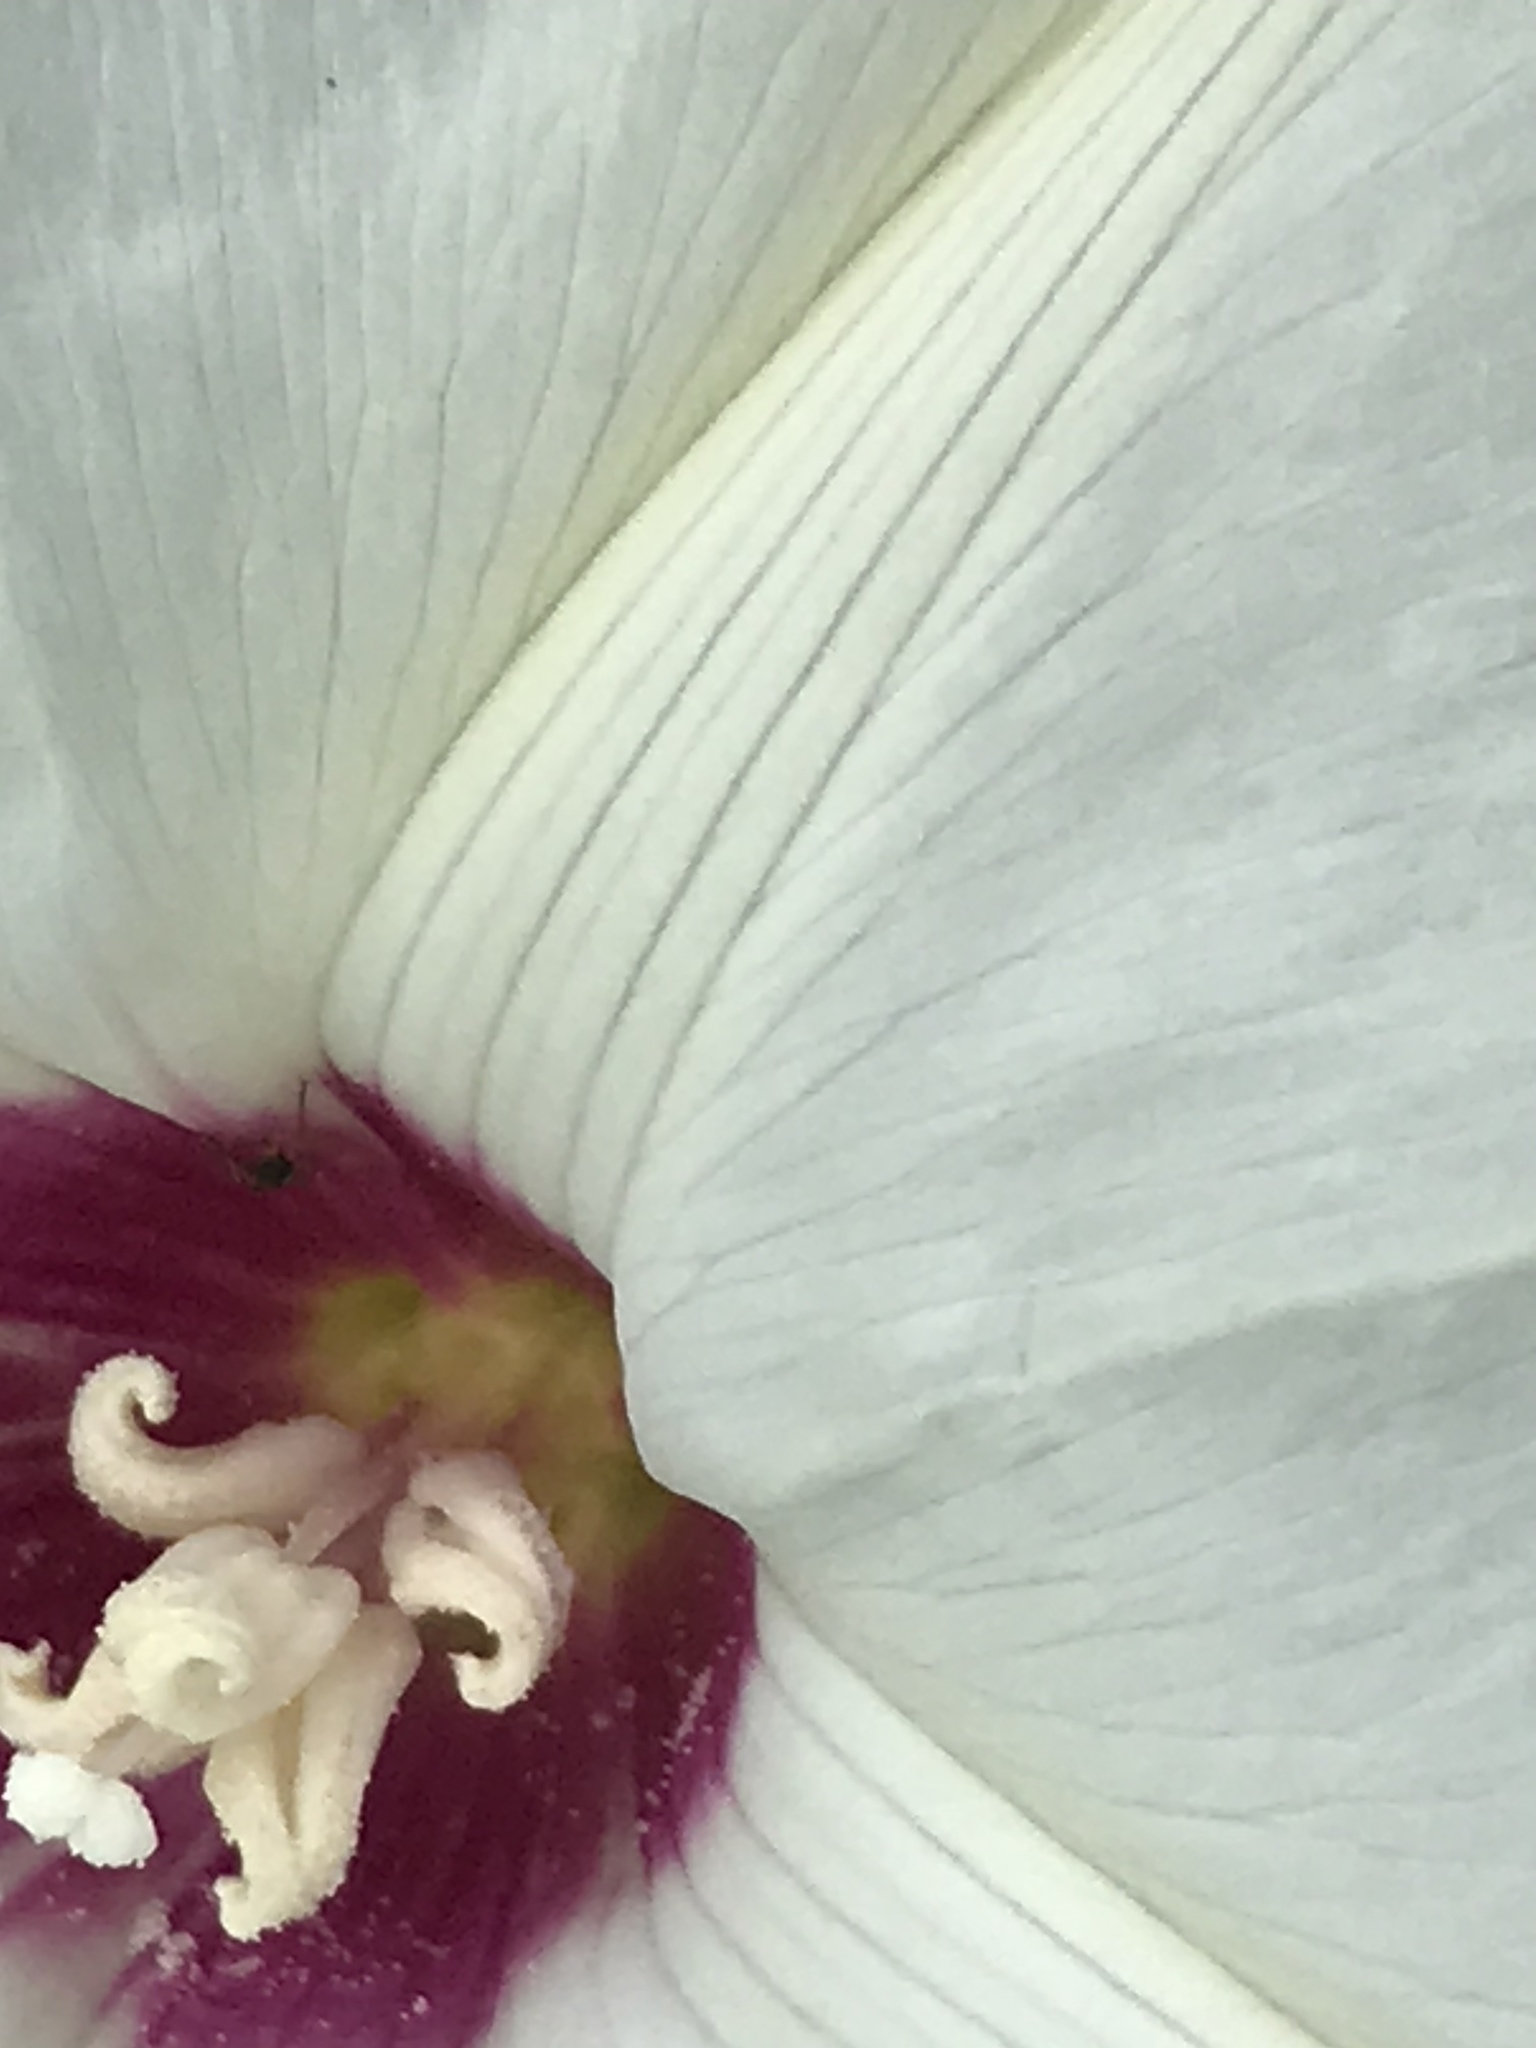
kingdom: Plantae
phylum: Tracheophyta
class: Magnoliopsida
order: Solanales
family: Convolvulaceae
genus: Distimake
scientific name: Distimake dissectus
